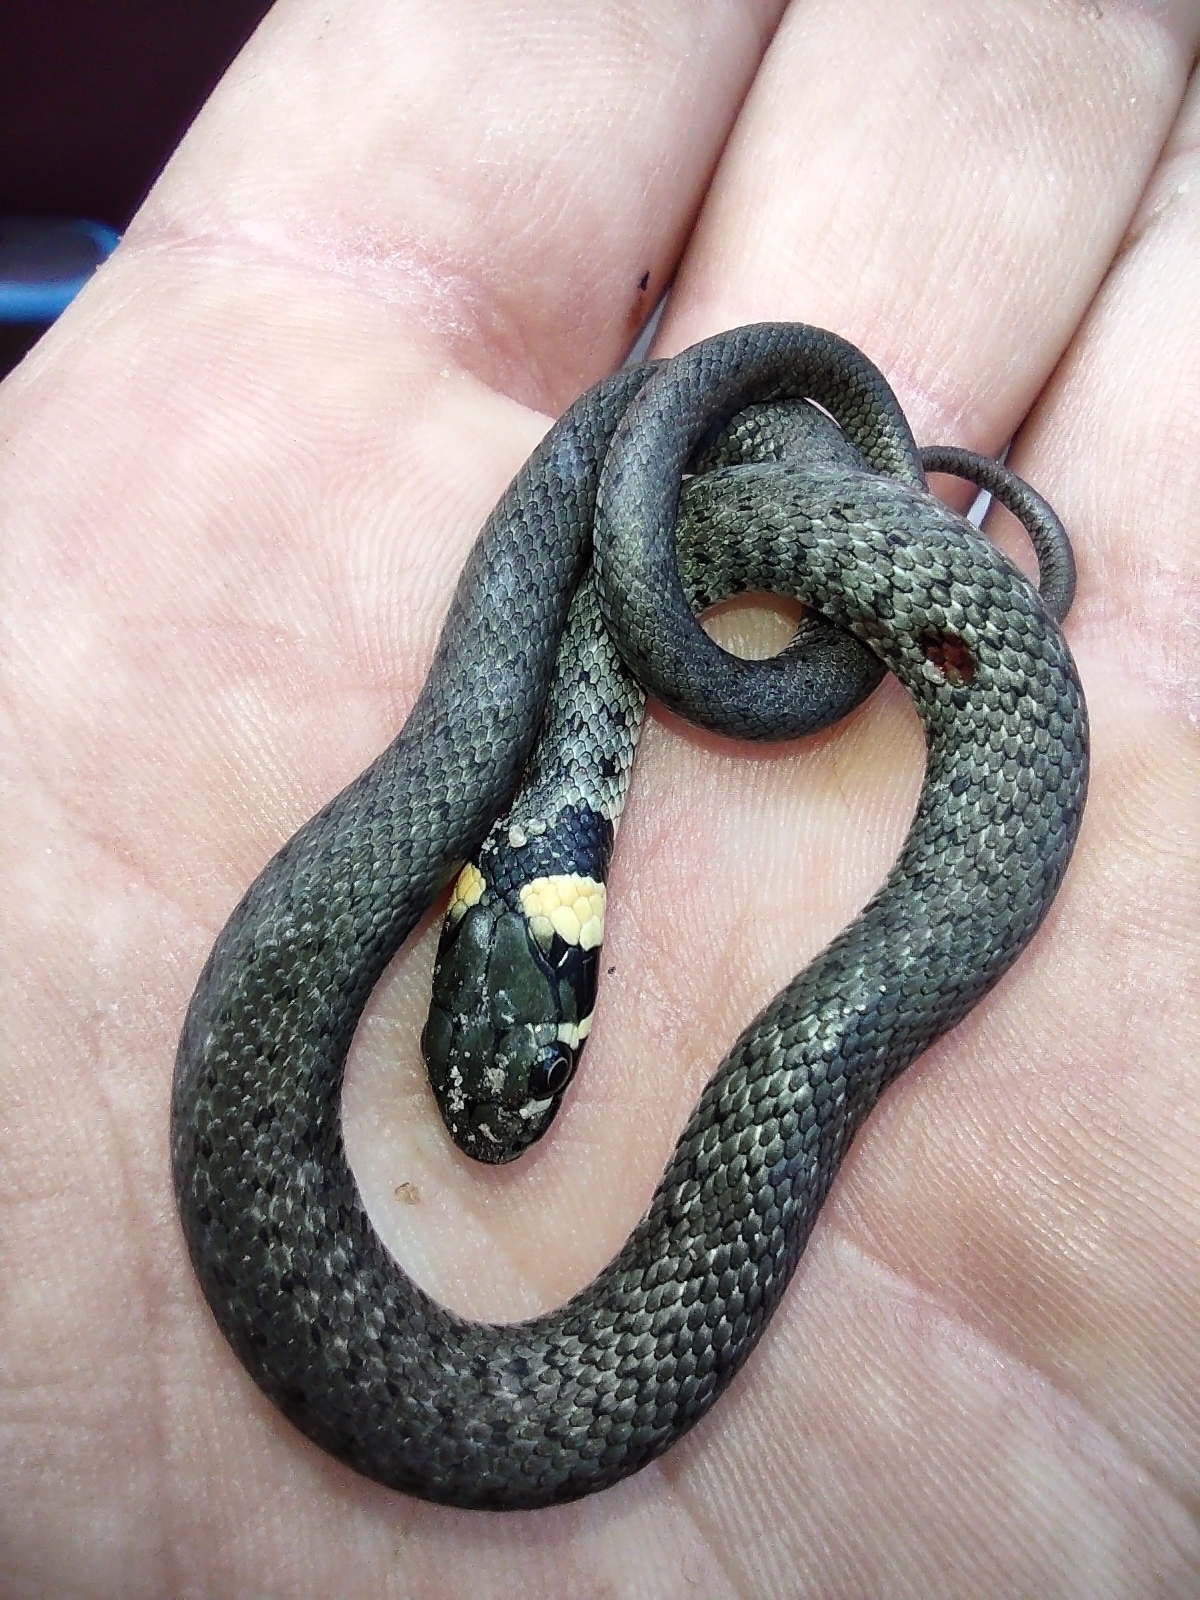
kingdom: Animalia
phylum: Chordata
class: Squamata
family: Colubridae
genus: Natrix
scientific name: Natrix natrix
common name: Grass snake
